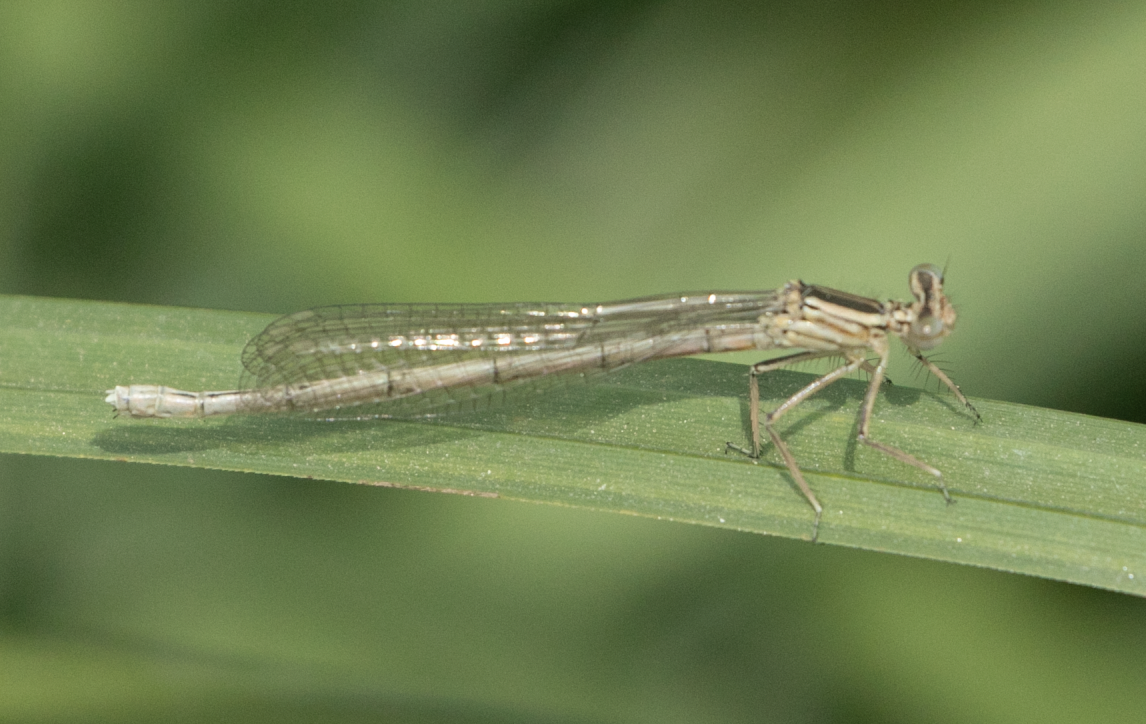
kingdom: Animalia
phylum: Arthropoda
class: Insecta
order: Odonata
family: Platycnemididae
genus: Platycnemis
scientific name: Platycnemis pennipes
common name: White-legged damselfly
